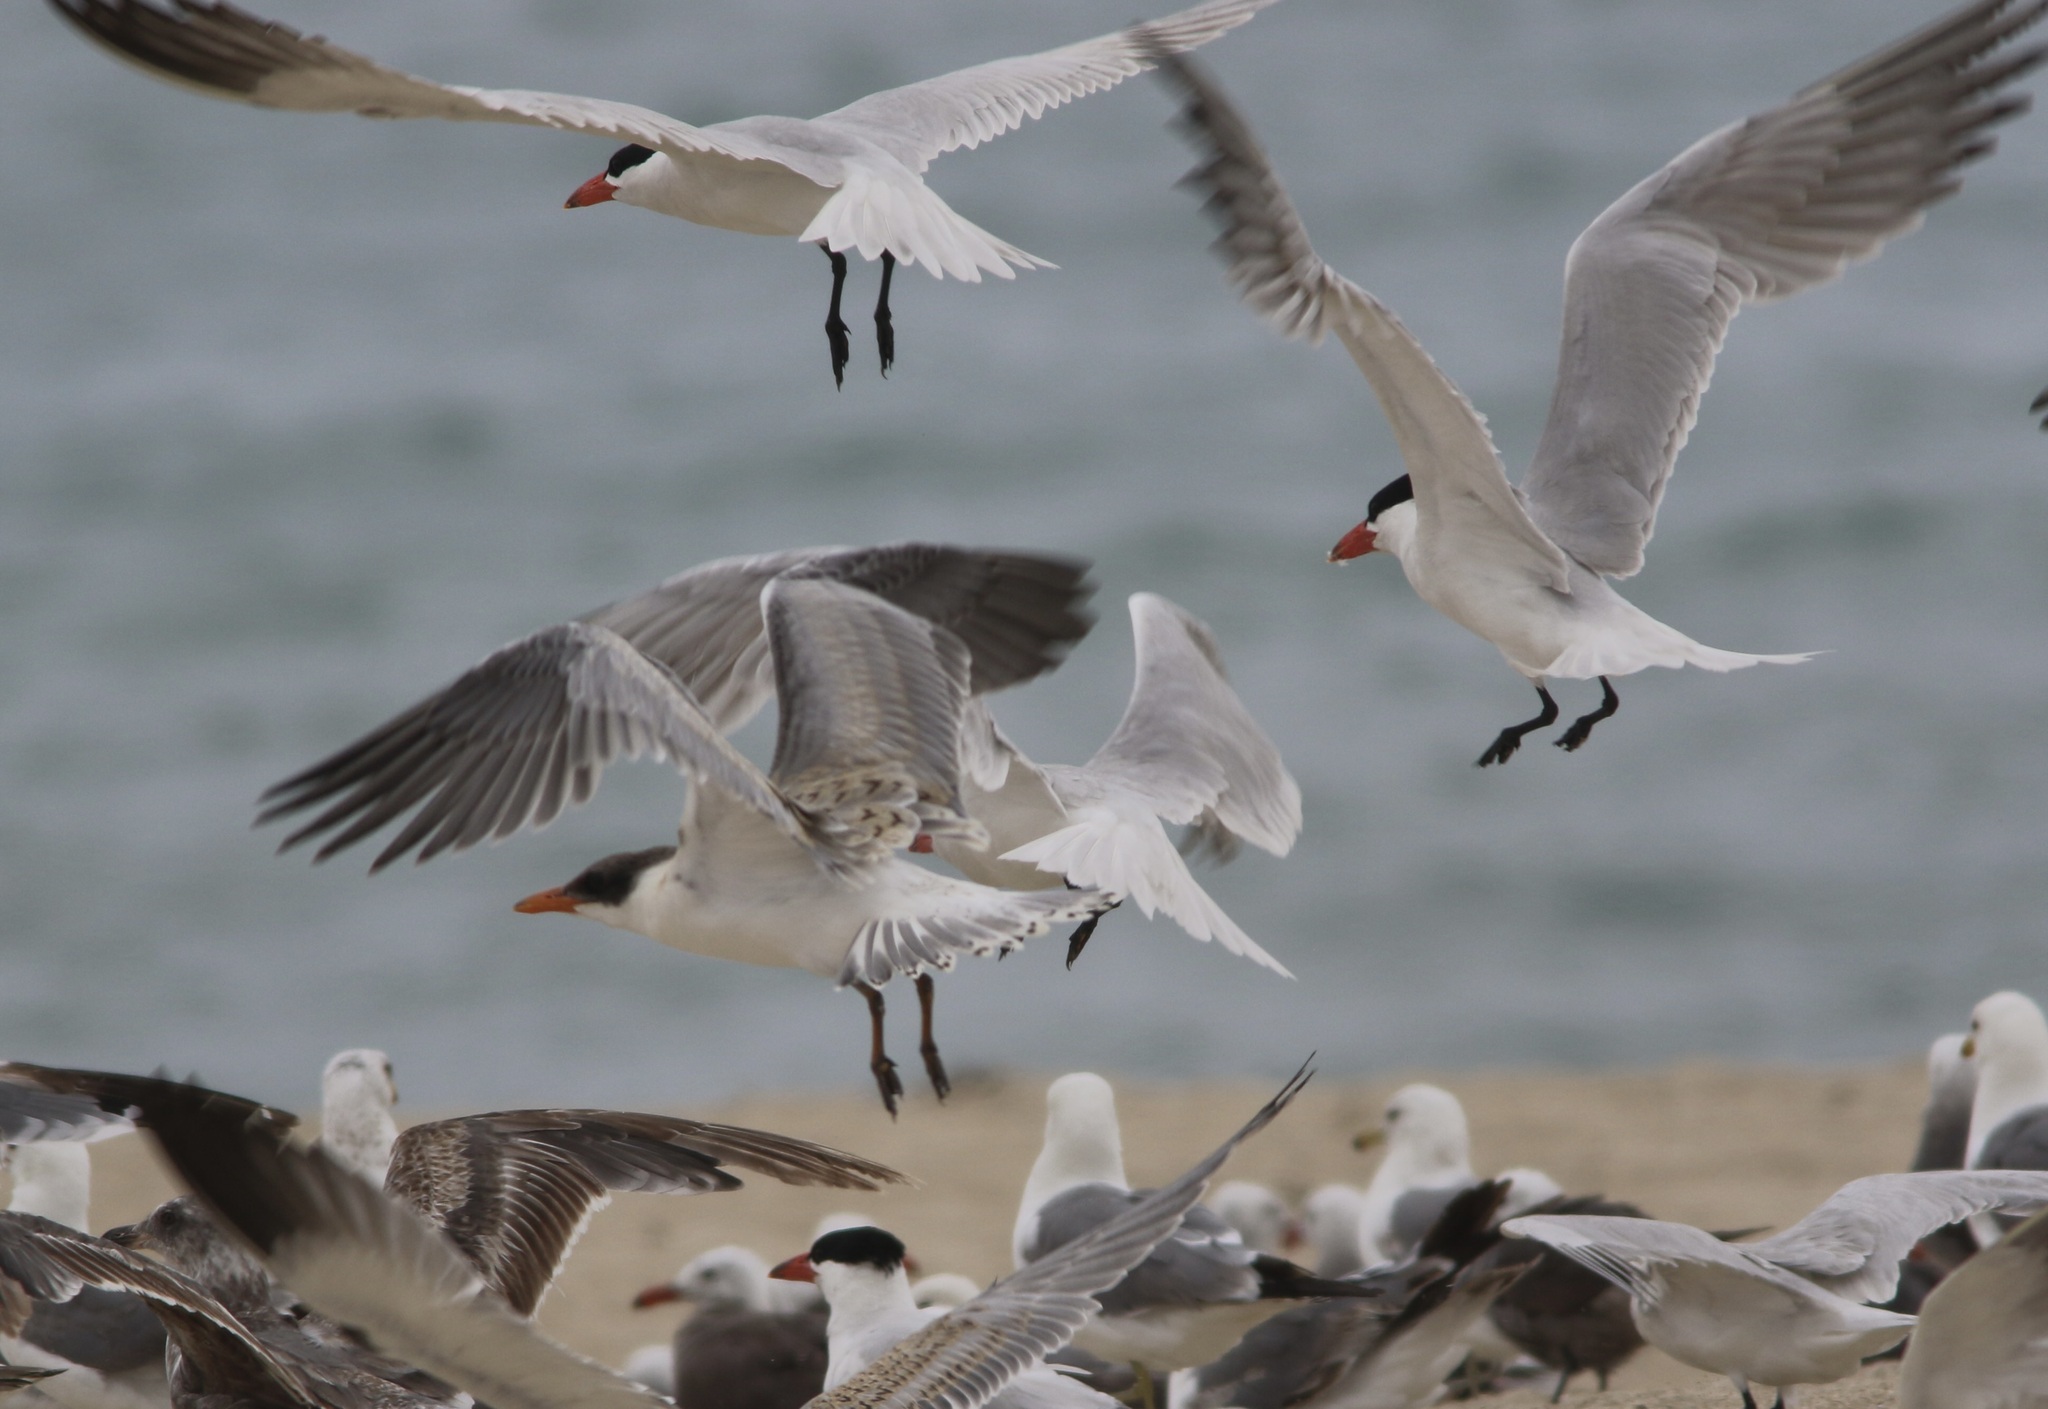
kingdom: Animalia
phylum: Chordata
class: Aves
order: Charadriiformes
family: Laridae
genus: Hydroprogne
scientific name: Hydroprogne caspia
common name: Caspian tern
